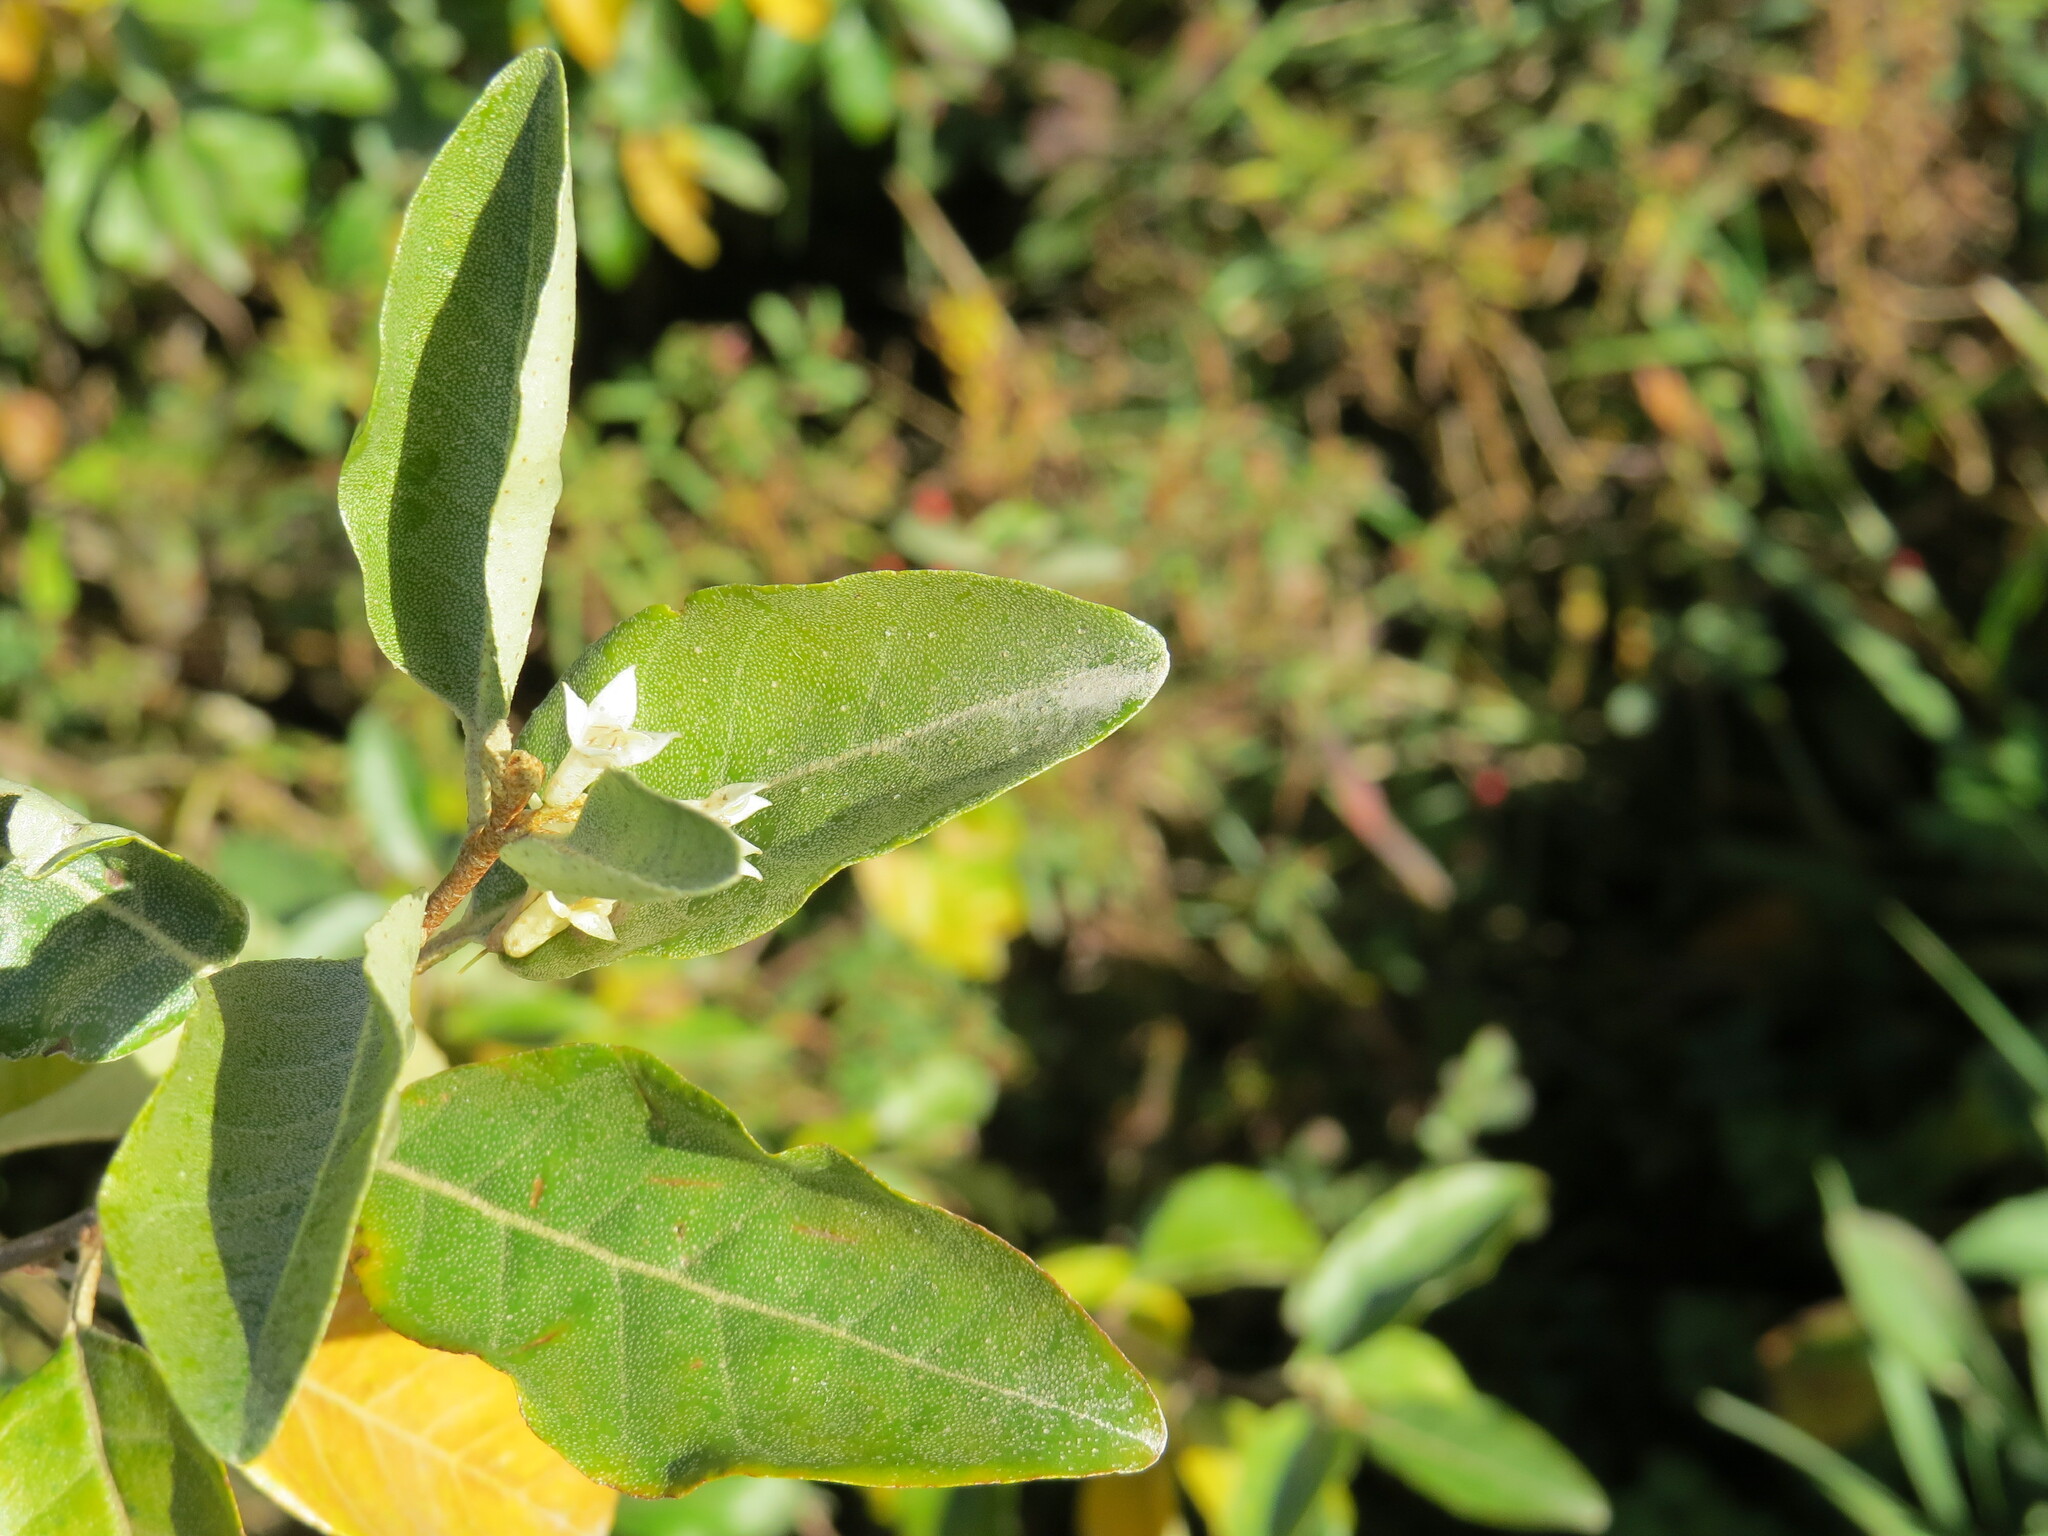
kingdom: Plantae
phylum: Tracheophyta
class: Magnoliopsida
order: Rosales
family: Elaeagnaceae
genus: Elaeagnus
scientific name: Elaeagnus umbellata
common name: Autumn olive
